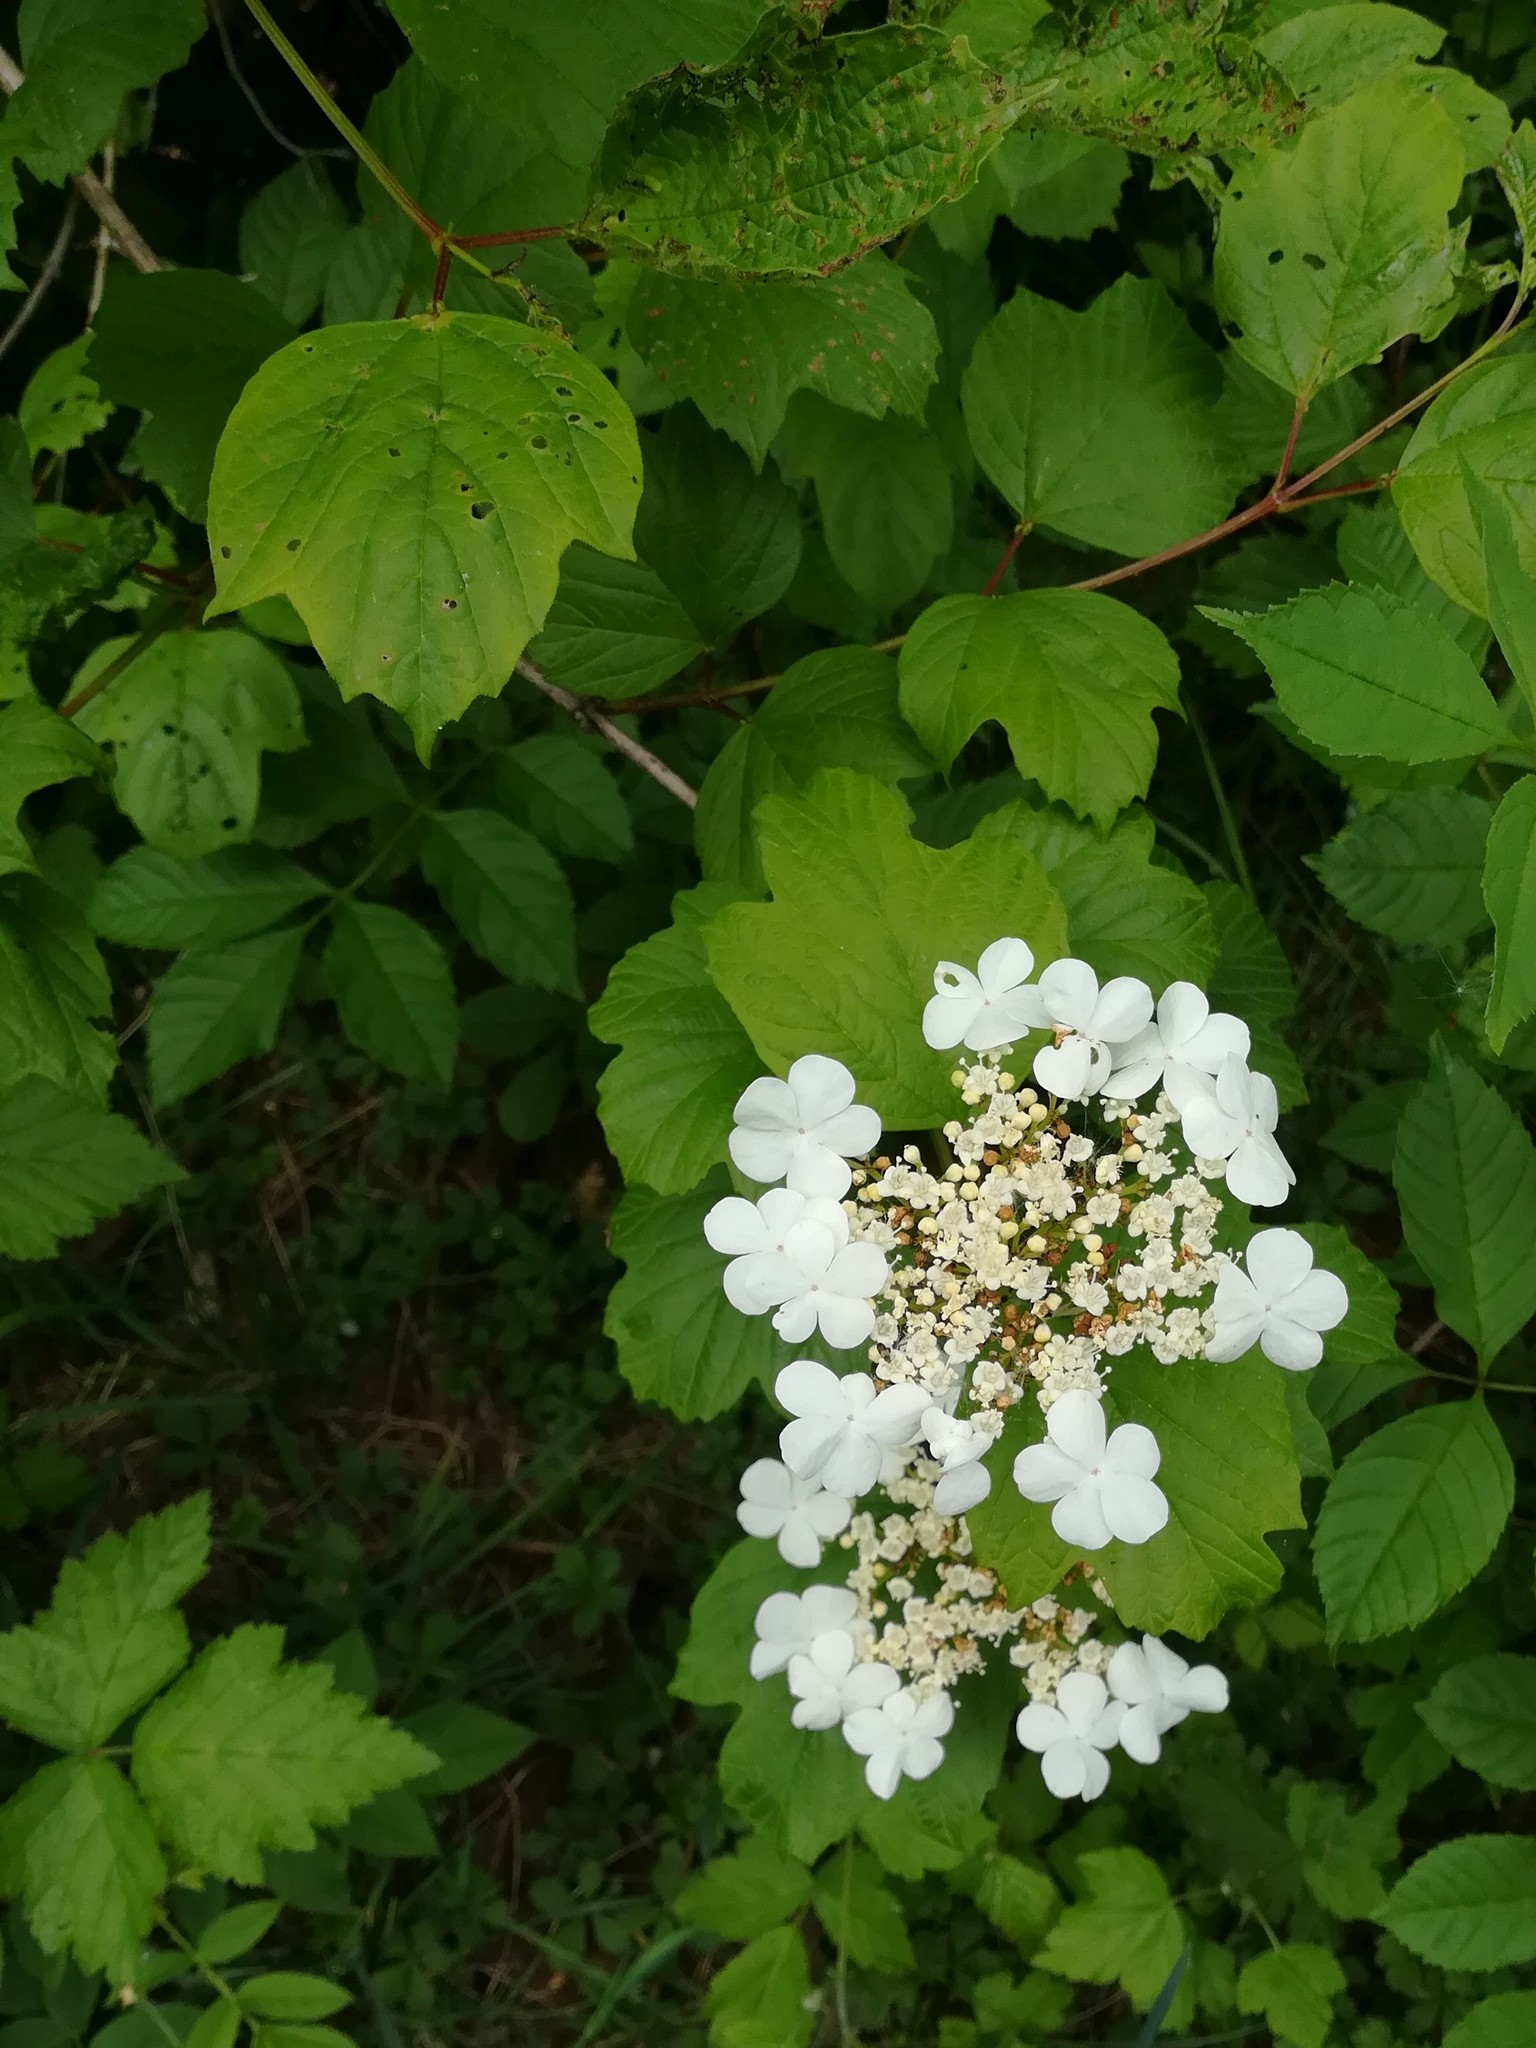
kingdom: Plantae
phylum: Tracheophyta
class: Magnoliopsida
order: Dipsacales
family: Viburnaceae
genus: Viburnum
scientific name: Viburnum opulus
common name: Guelder-rose
